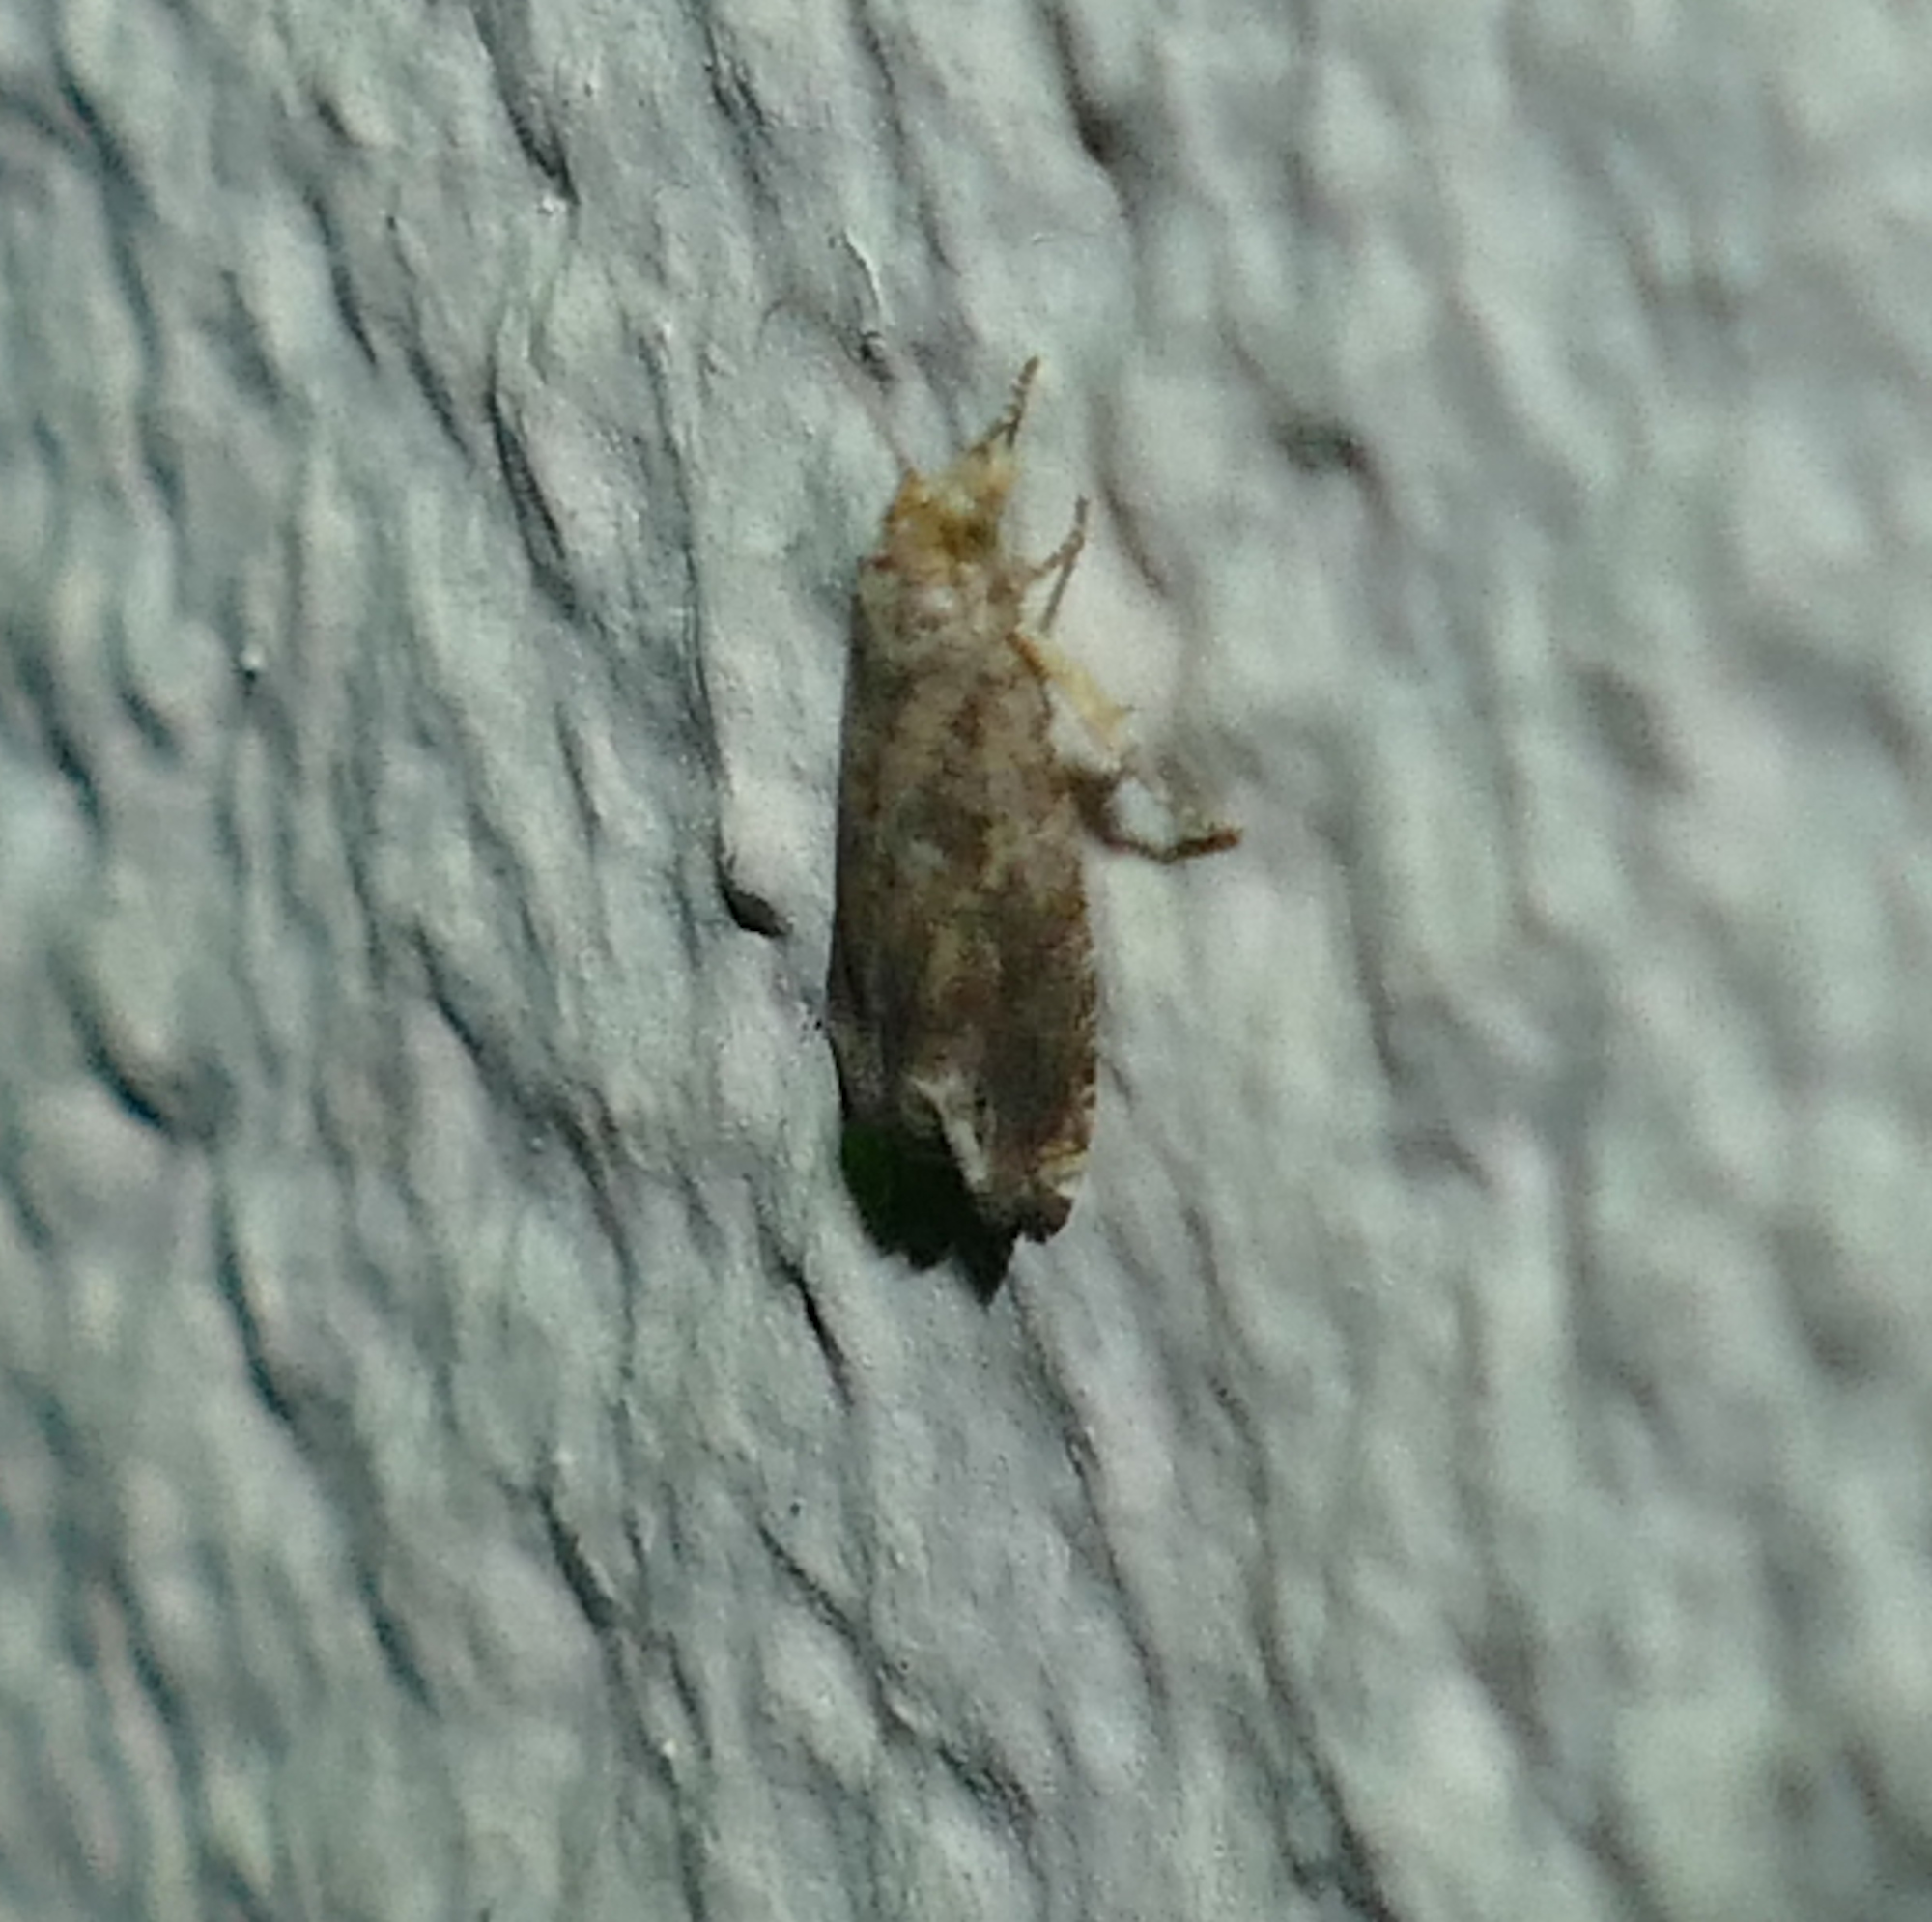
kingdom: Animalia
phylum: Arthropoda
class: Insecta
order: Lepidoptera
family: Tortricidae
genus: Epiblema
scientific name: Epiblema abruptana
